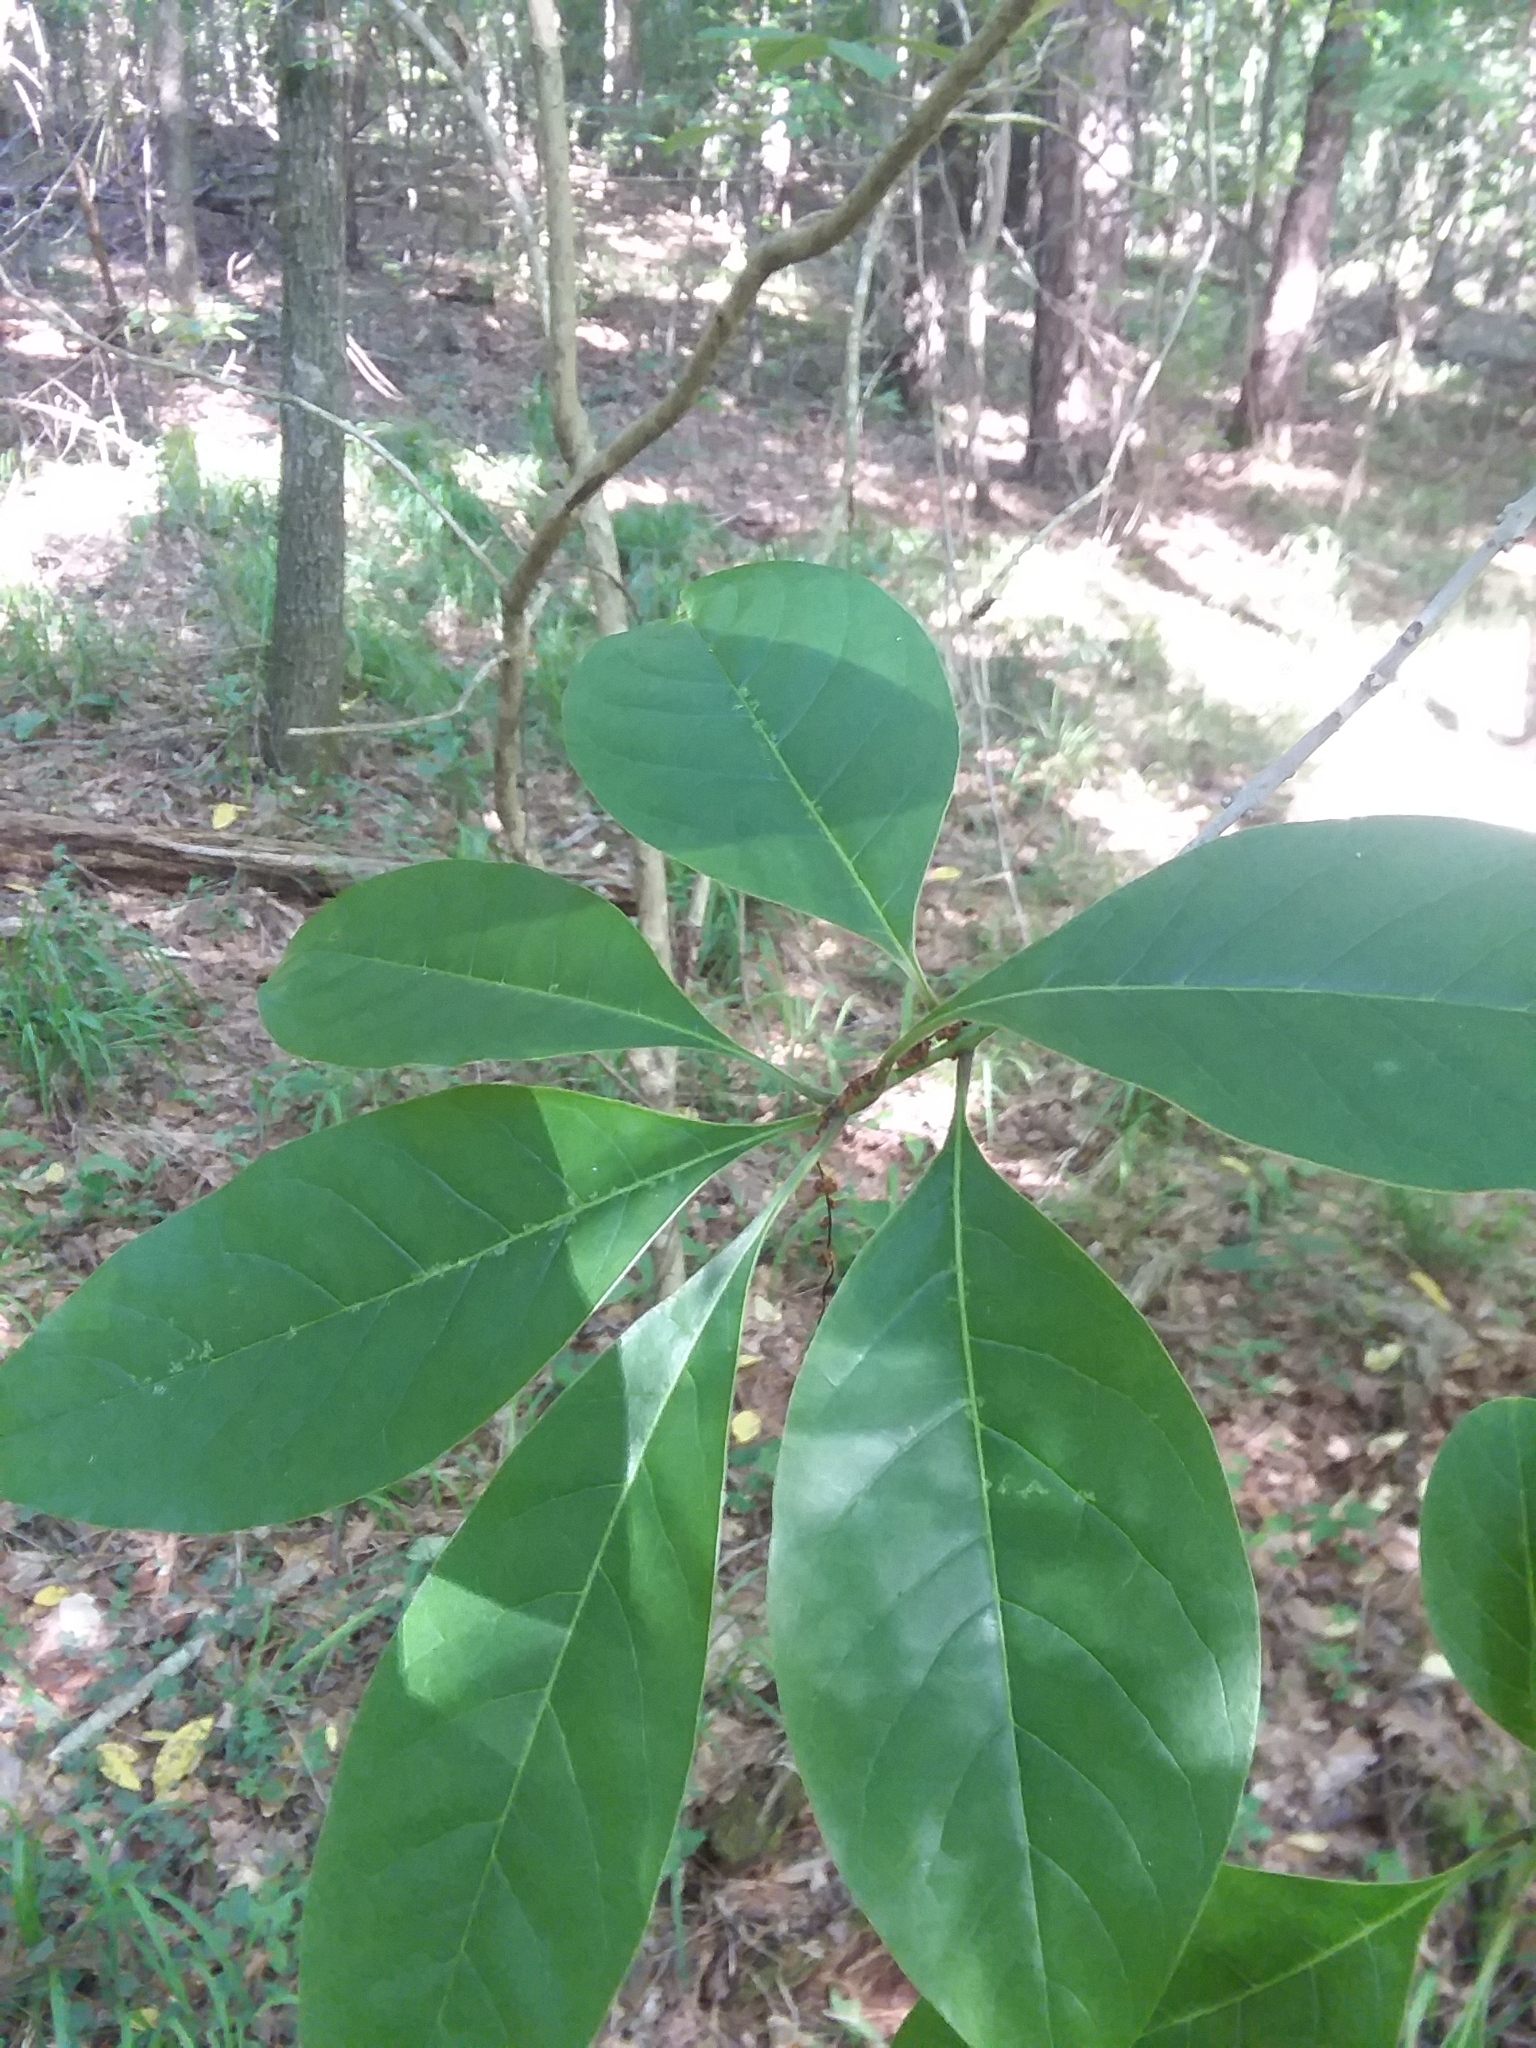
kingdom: Plantae
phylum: Tracheophyta
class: Magnoliopsida
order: Lamiales
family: Oleaceae
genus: Chionanthus
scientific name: Chionanthus virginicus
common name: American fringetree
